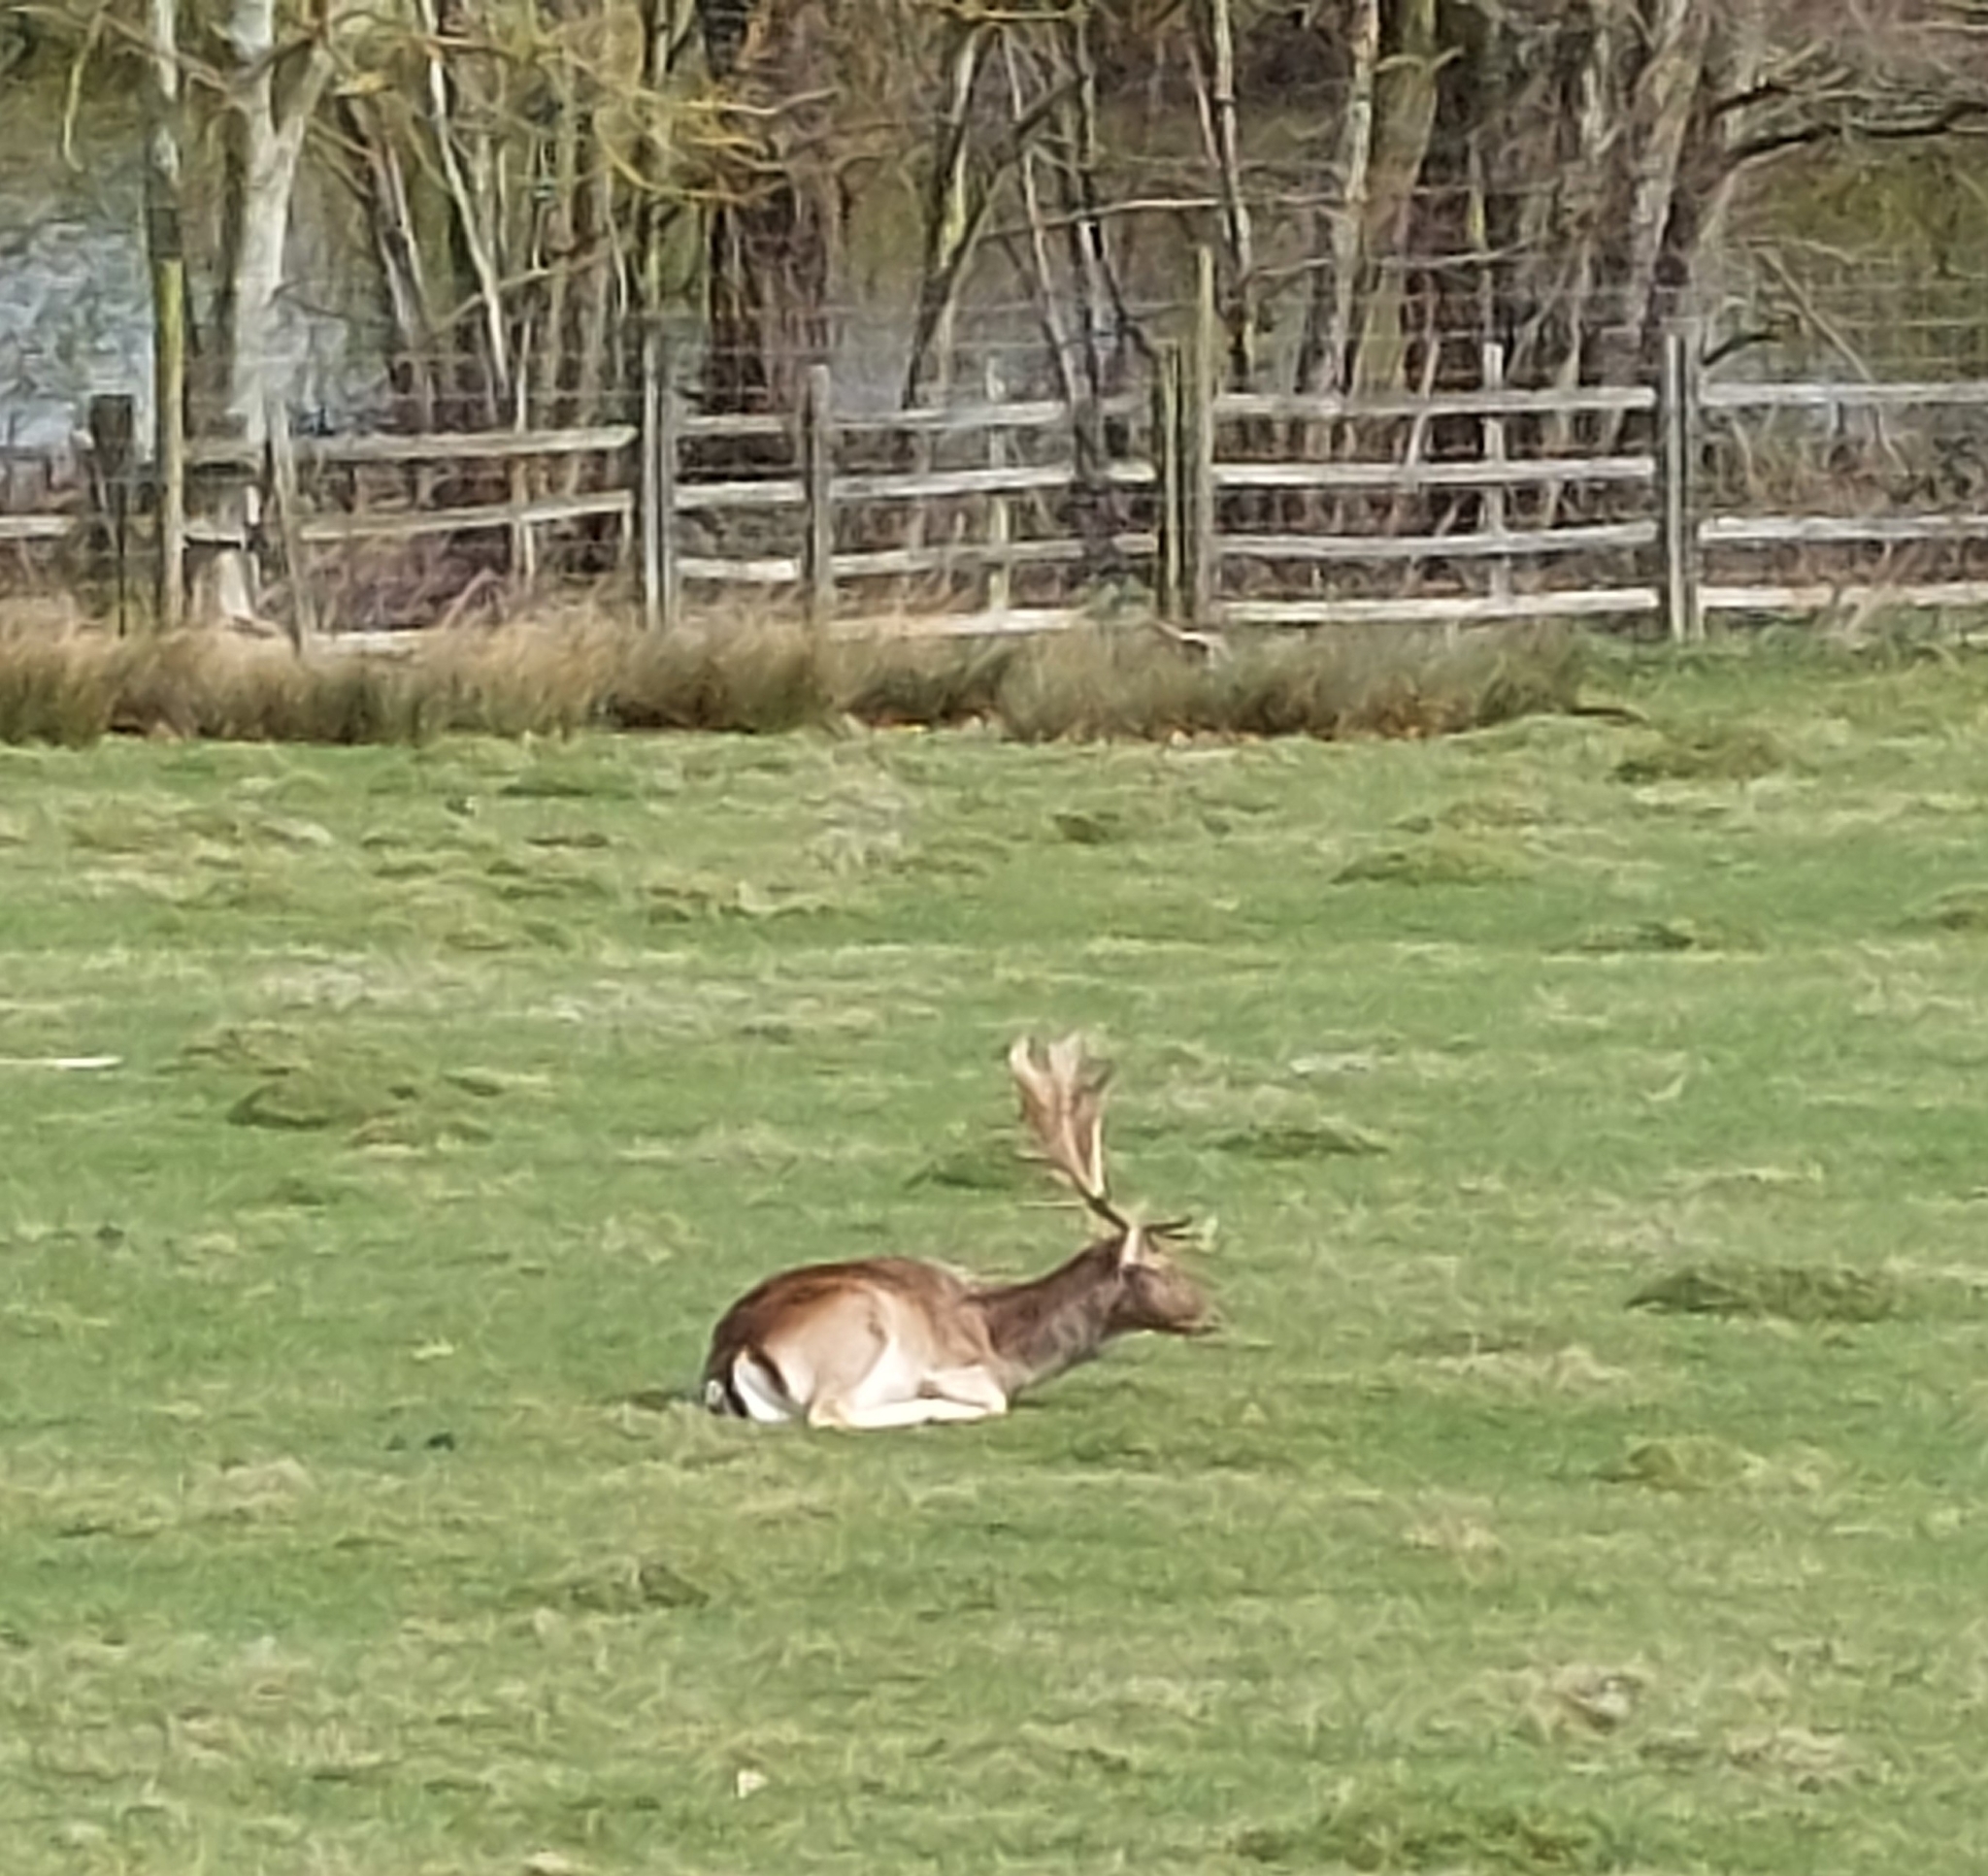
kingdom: Animalia
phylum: Chordata
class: Mammalia
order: Artiodactyla
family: Cervidae
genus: Dama
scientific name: Dama dama
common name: Fallow deer
